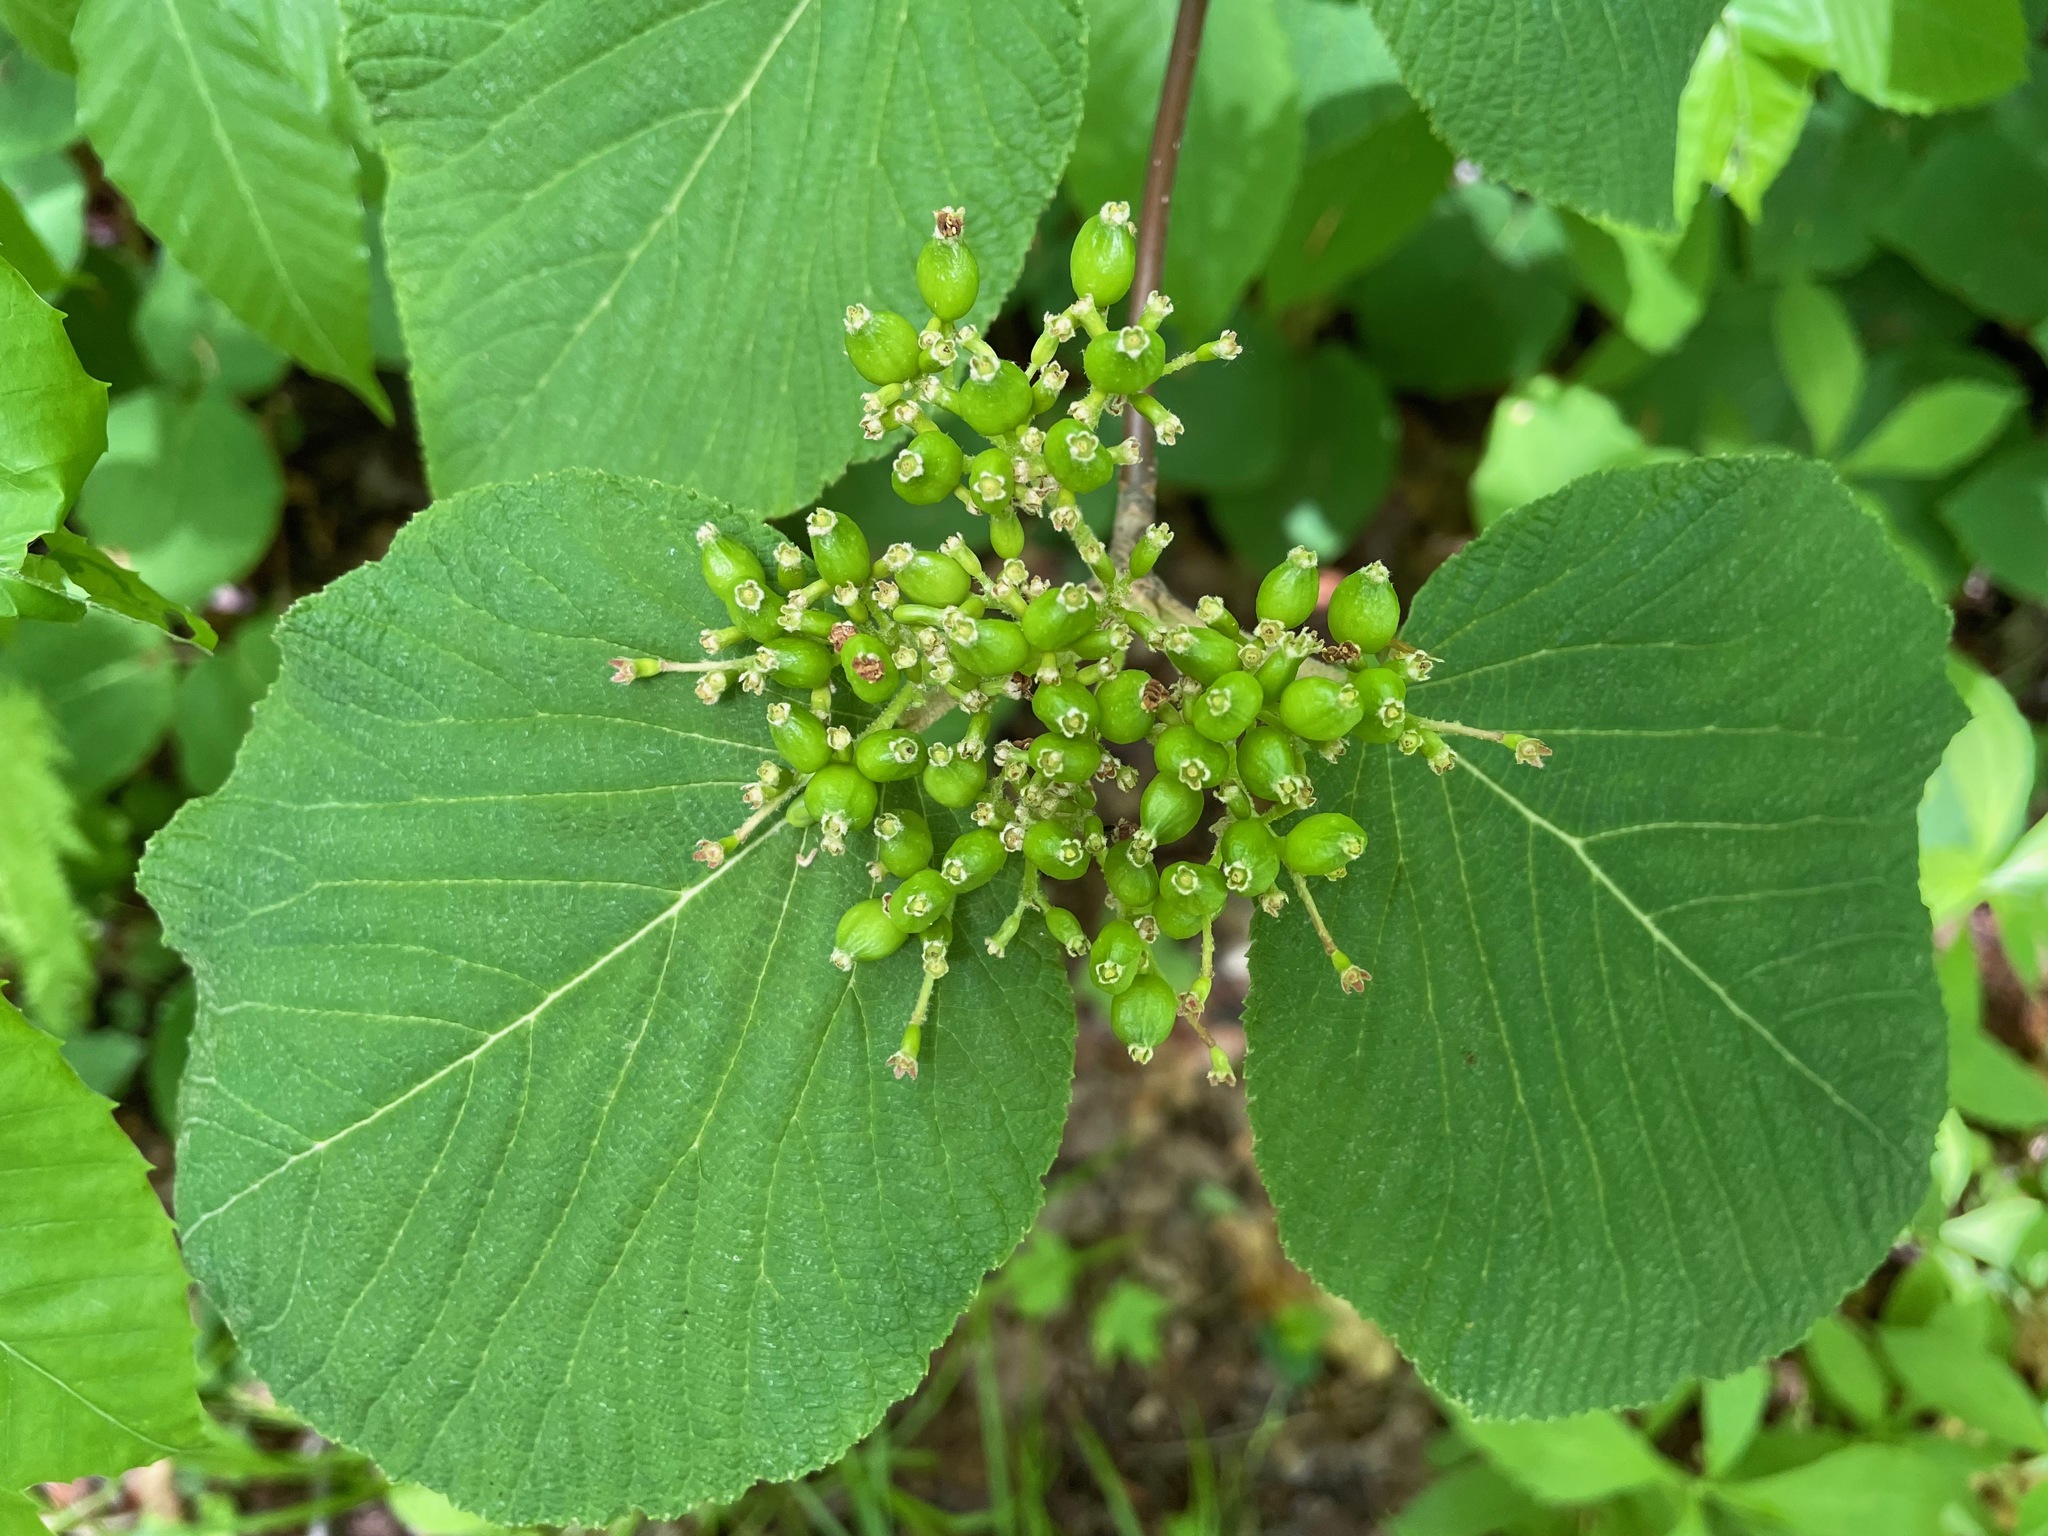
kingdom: Plantae
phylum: Tracheophyta
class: Magnoliopsida
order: Dipsacales
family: Viburnaceae
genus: Viburnum
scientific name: Viburnum lantanoides
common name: Hobblebush
